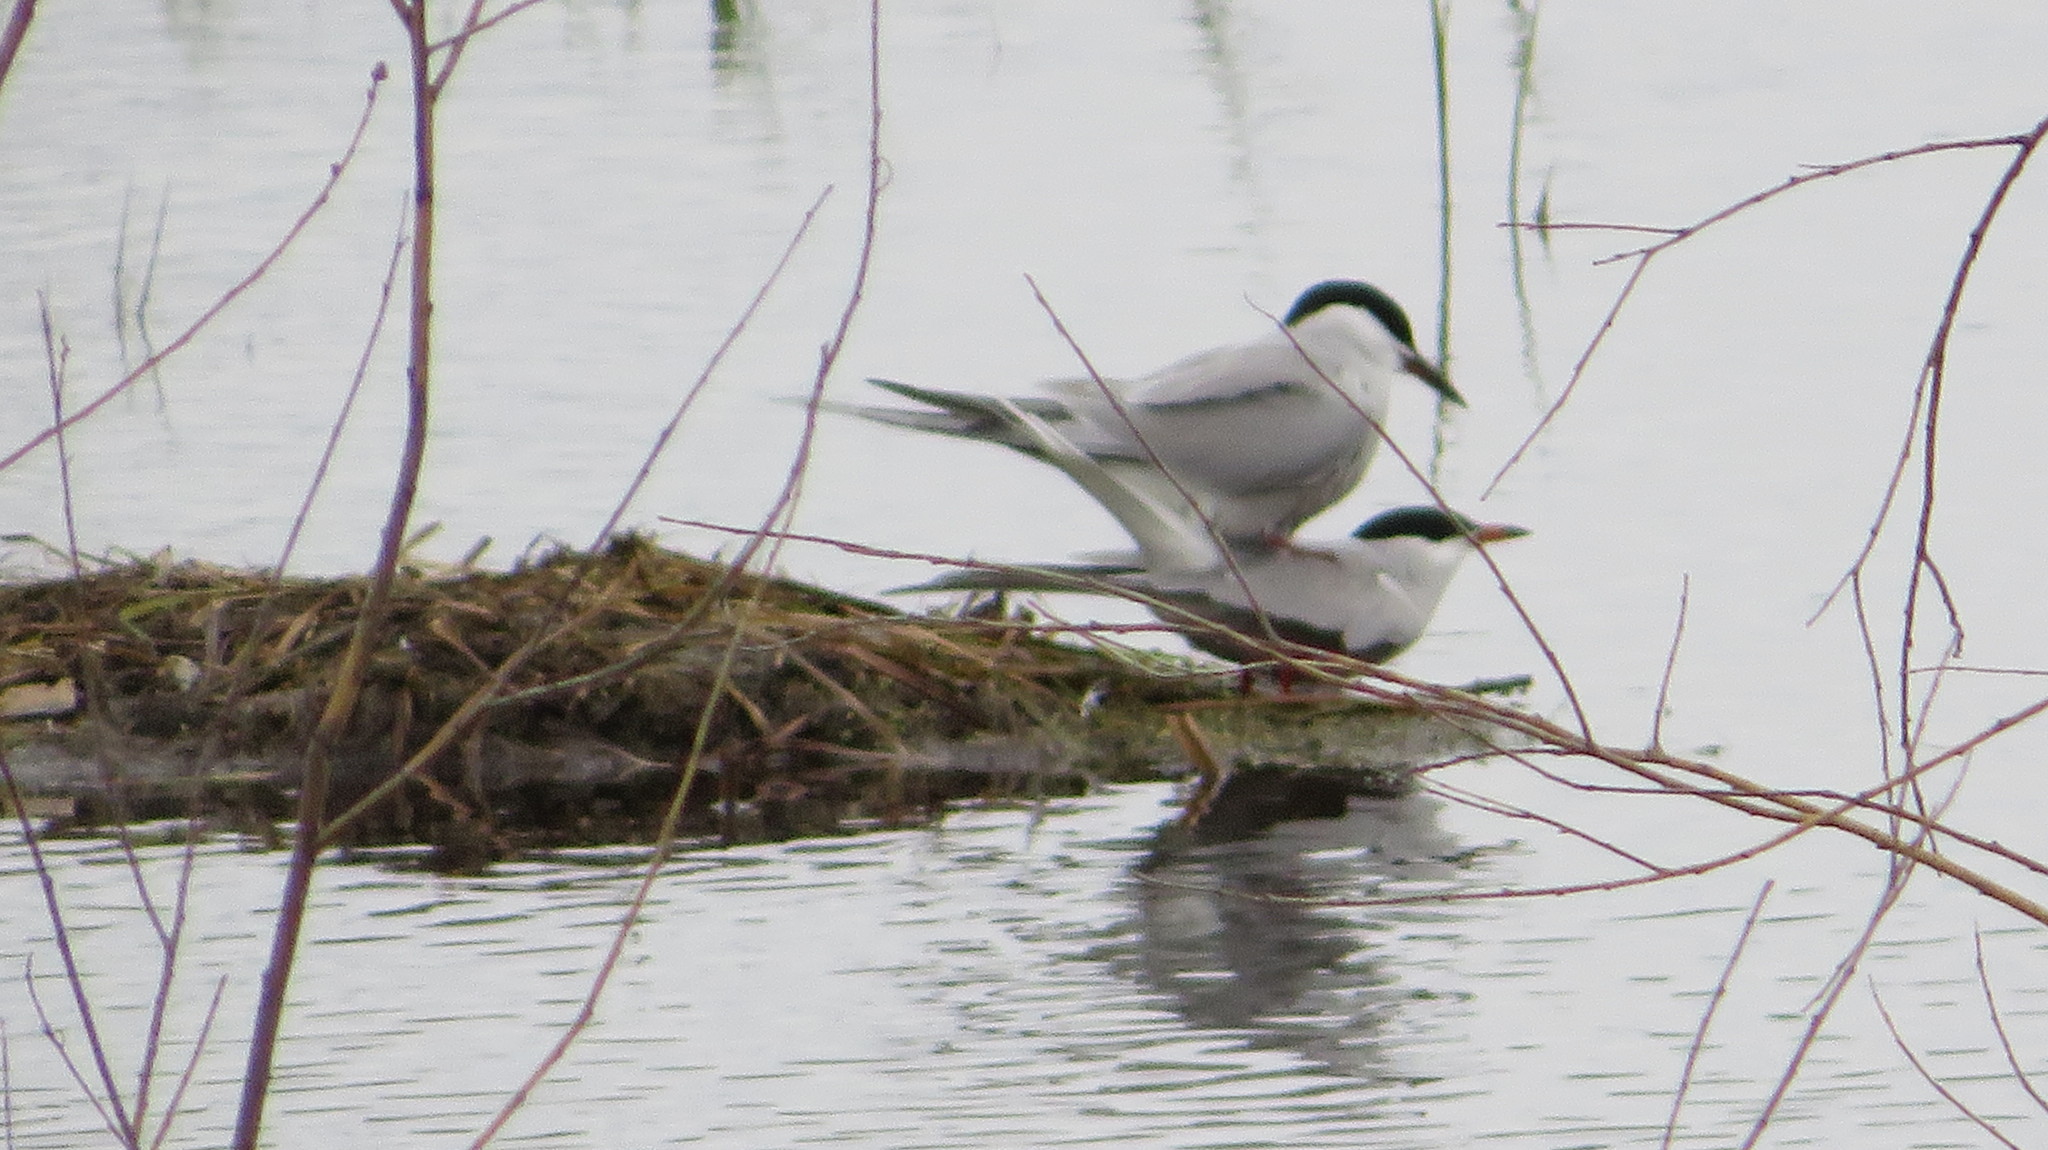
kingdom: Animalia
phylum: Chordata
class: Aves
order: Charadriiformes
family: Laridae
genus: Sterna
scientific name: Sterna hirundo
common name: Common tern
